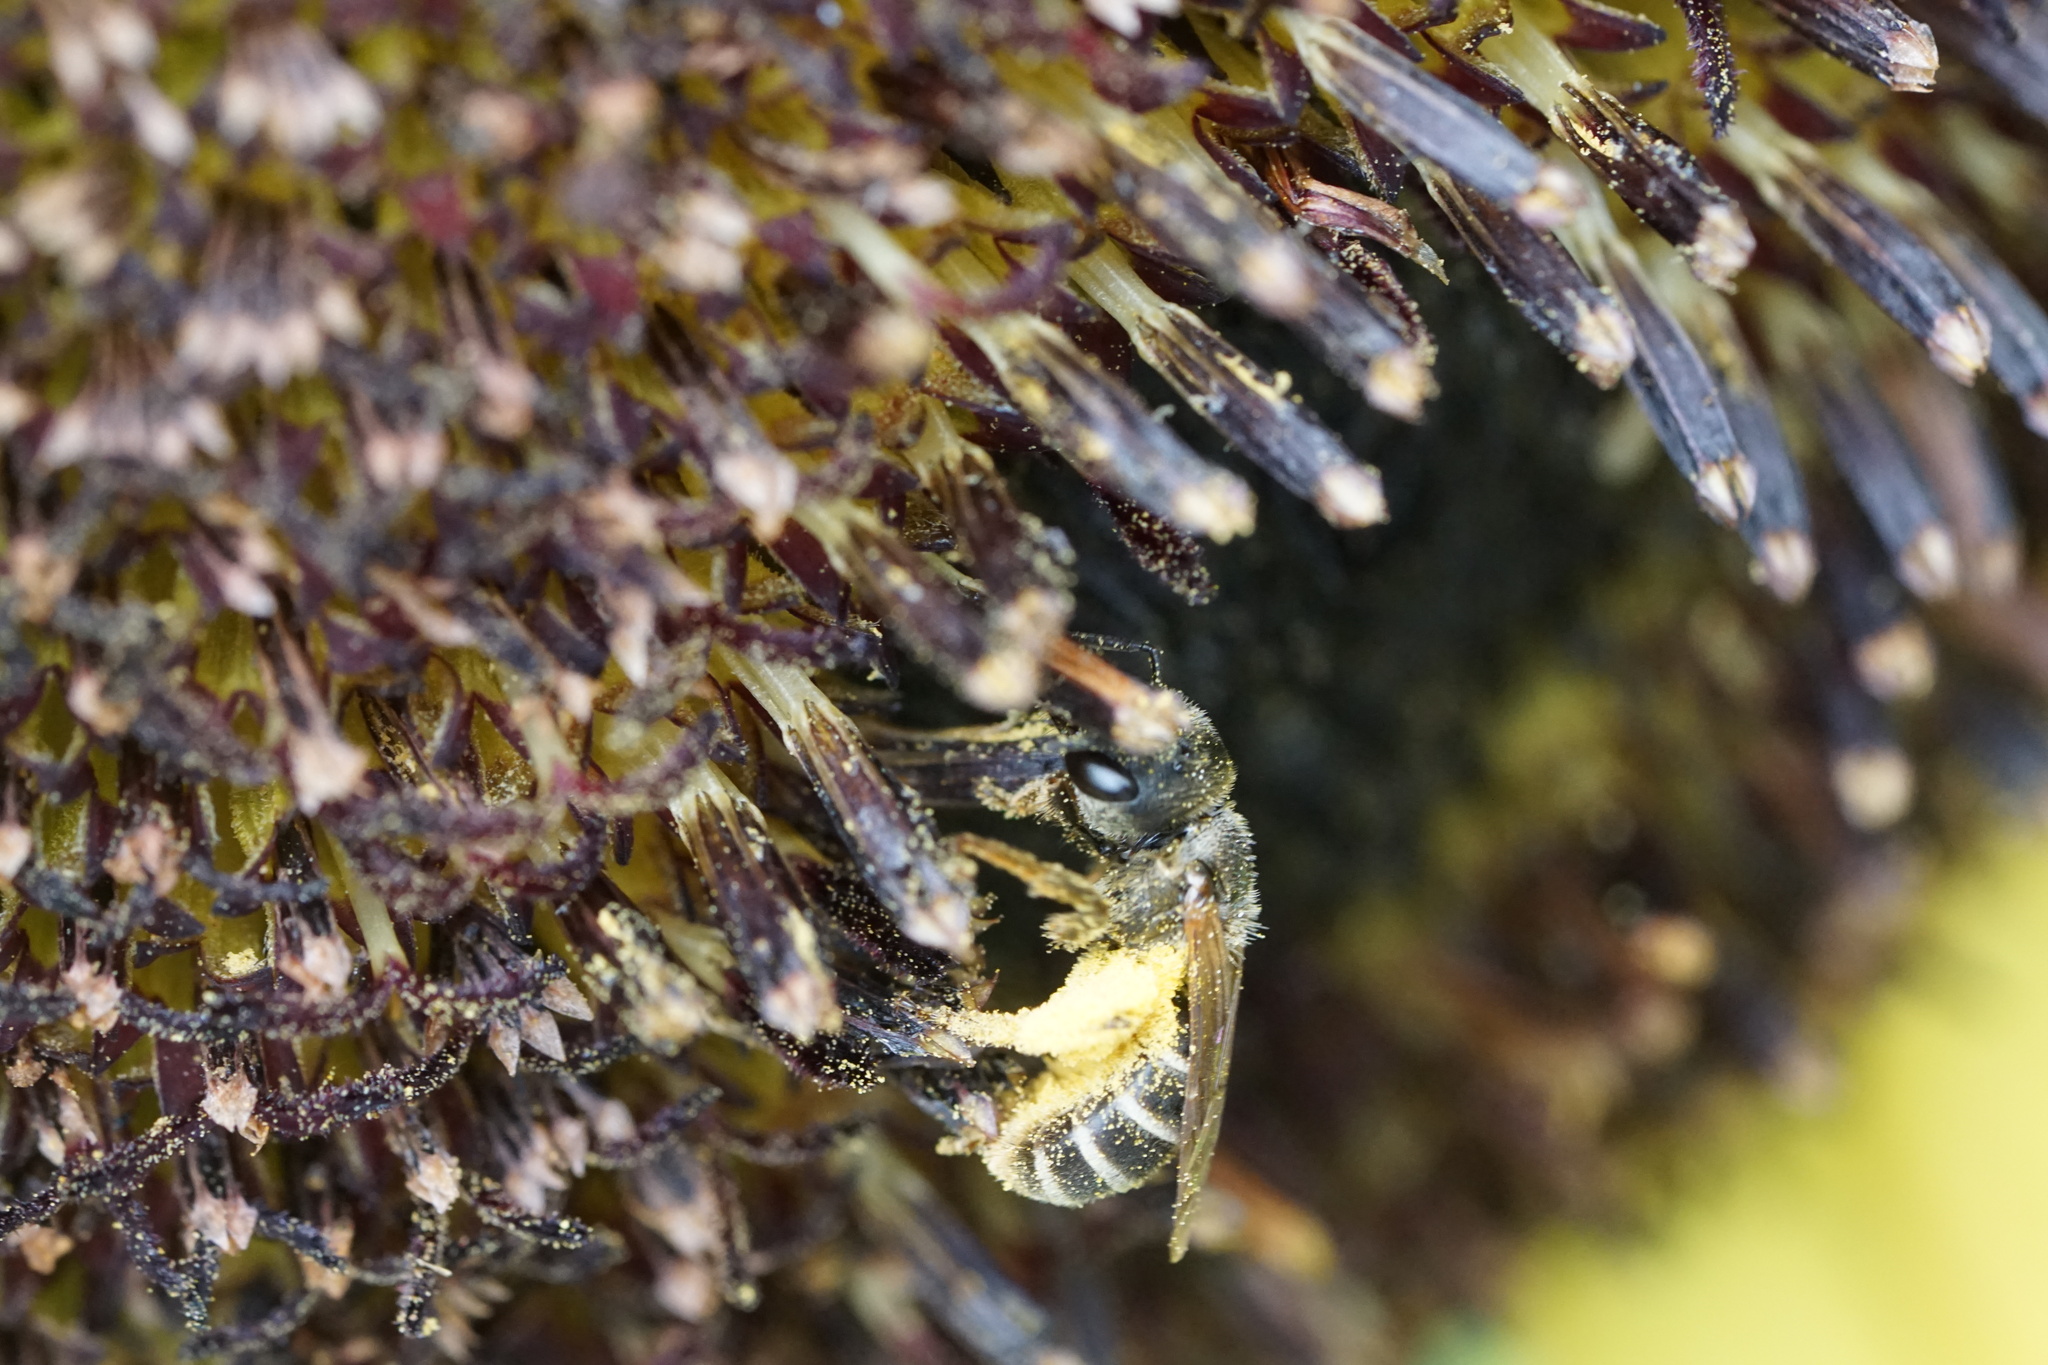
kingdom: Animalia
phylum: Arthropoda
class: Insecta
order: Hymenoptera
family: Halictidae
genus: Halictus
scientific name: Halictus ligatus
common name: Ligated furrow bee
